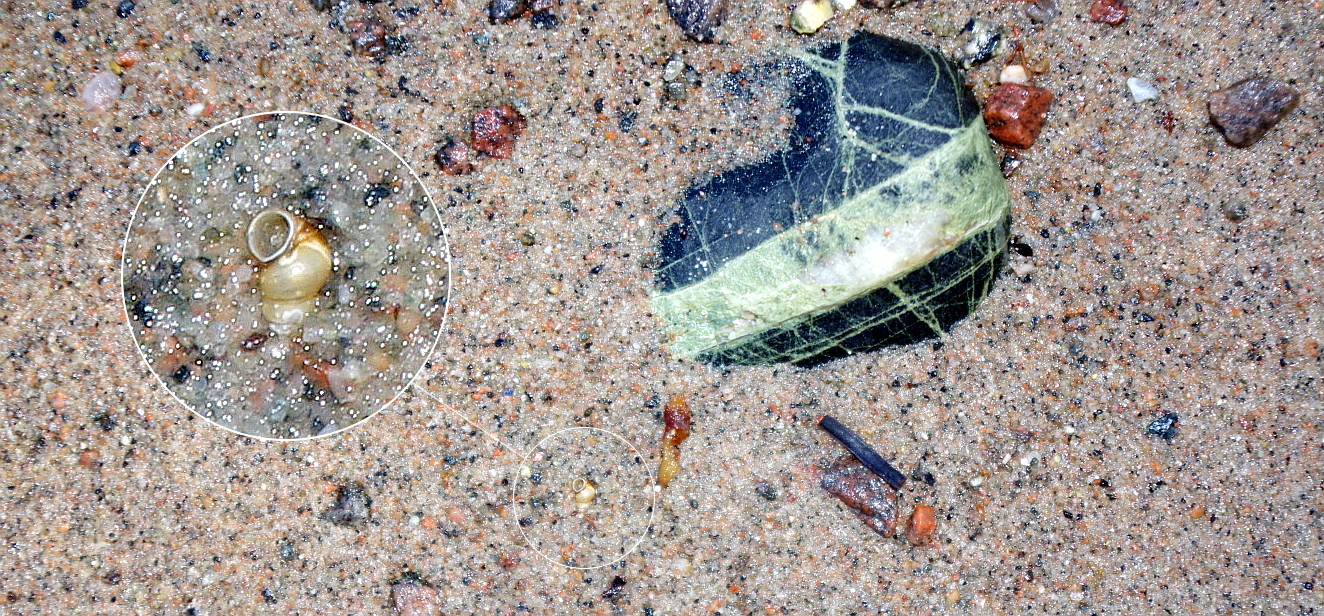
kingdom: Animalia
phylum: Mollusca
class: Gastropoda
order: Littorinimorpha
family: Hydrobiidae
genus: Peringia
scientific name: Peringia ulvae
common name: Laver spire shell
